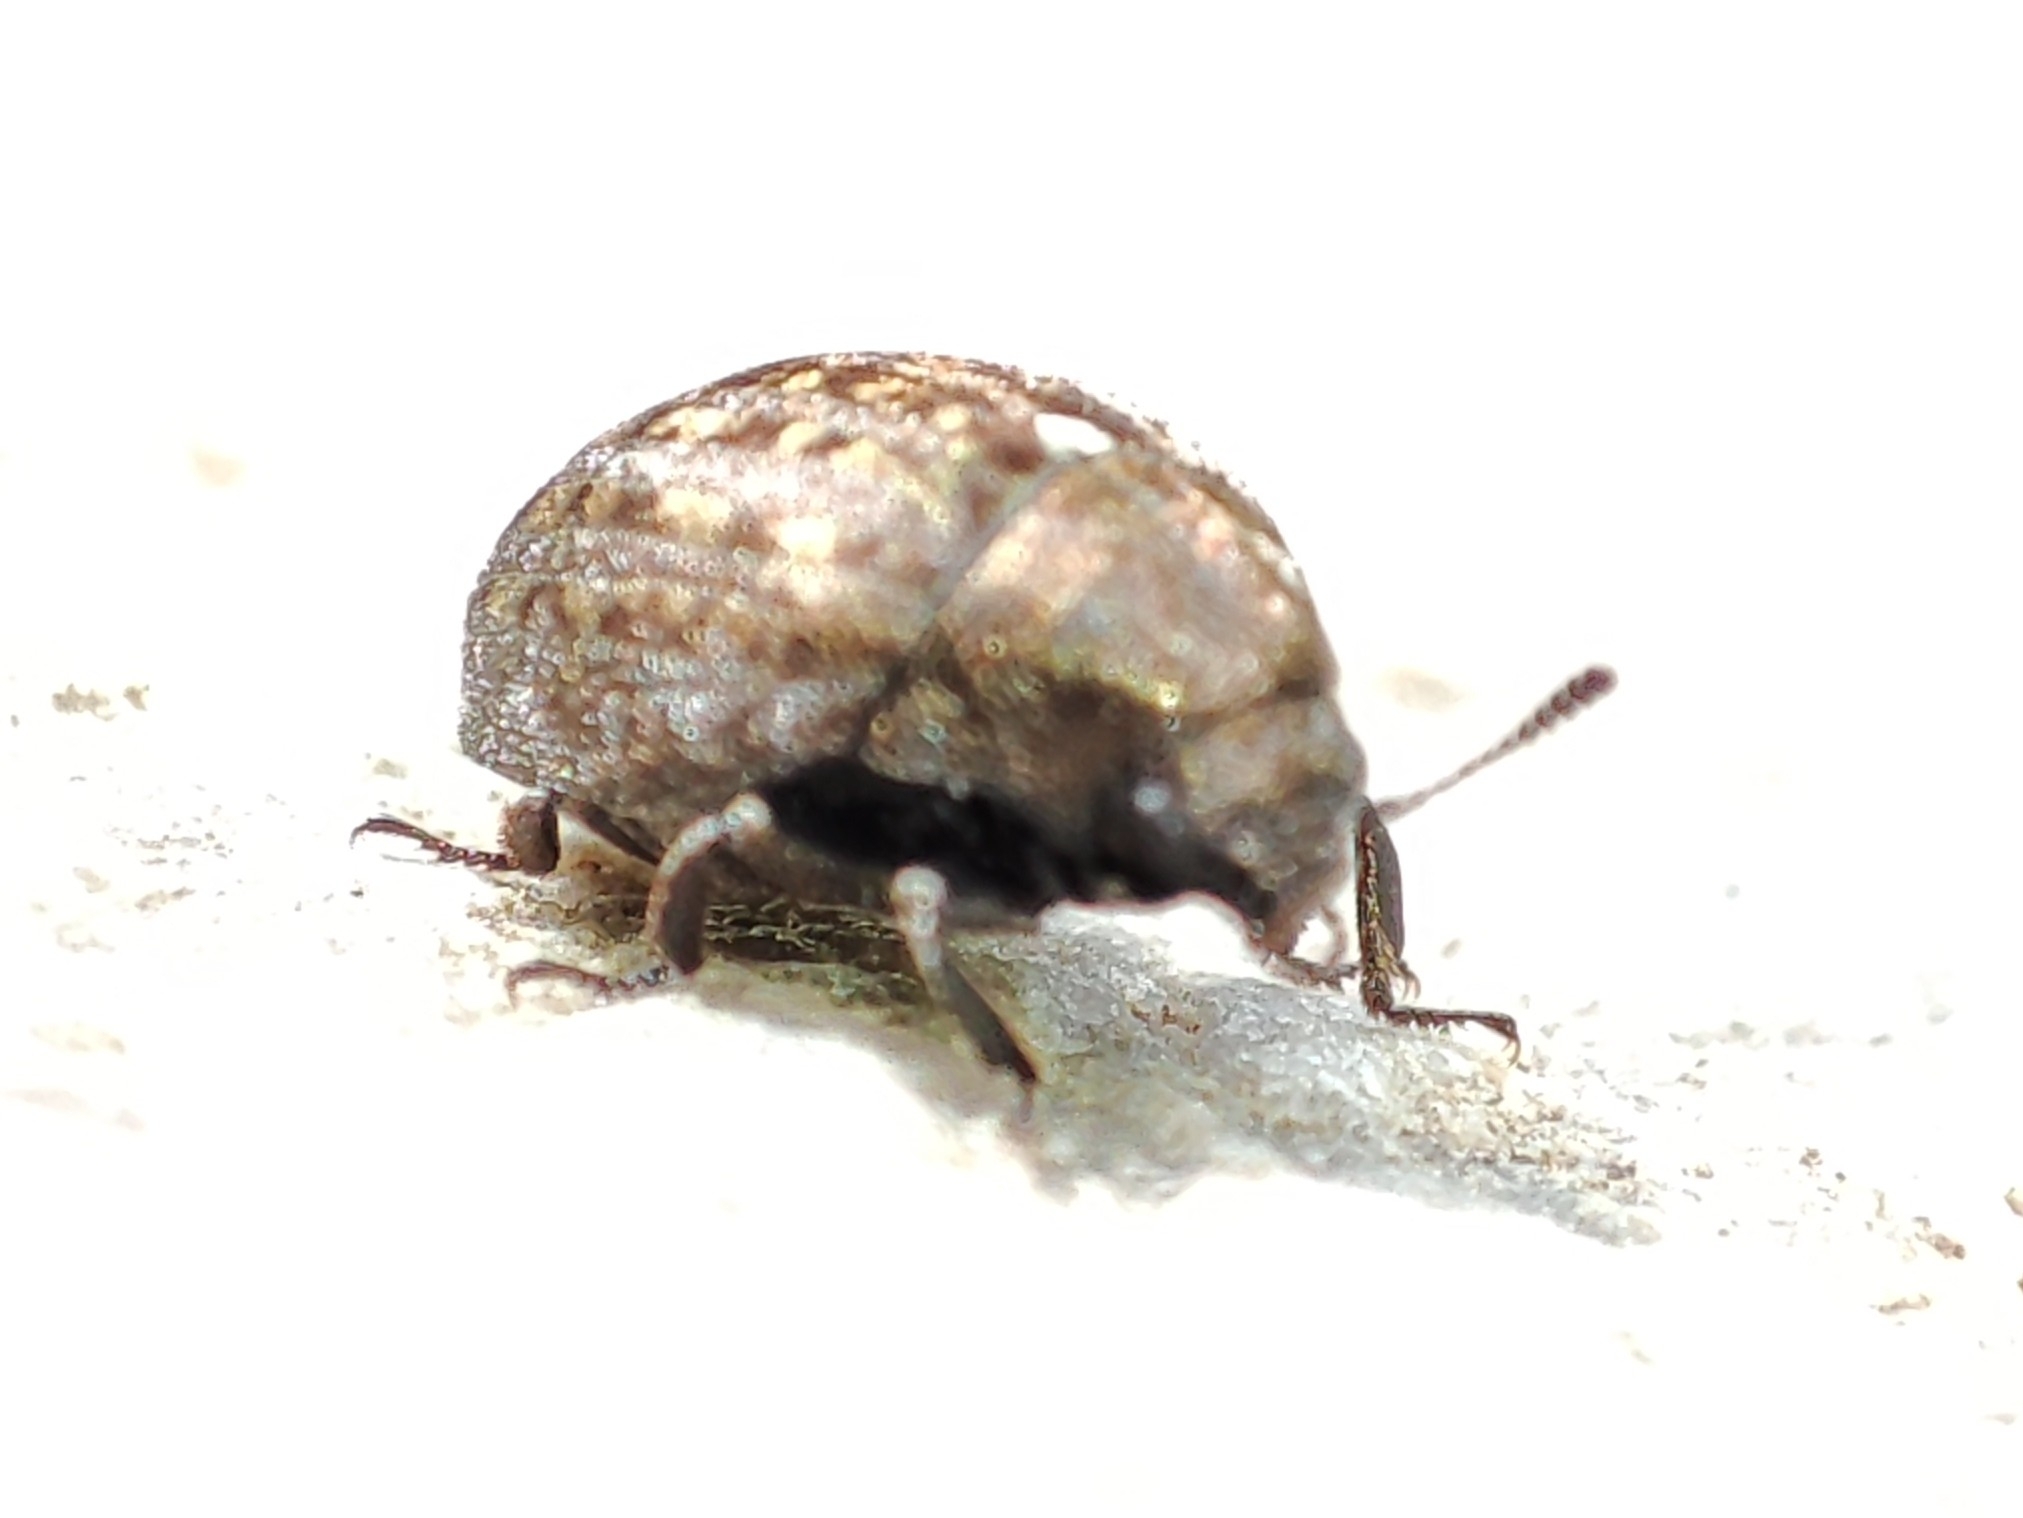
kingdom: Animalia
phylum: Arthropoda
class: Insecta
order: Coleoptera
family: Byrrhidae
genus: Cytilus
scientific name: Cytilus sericeus
